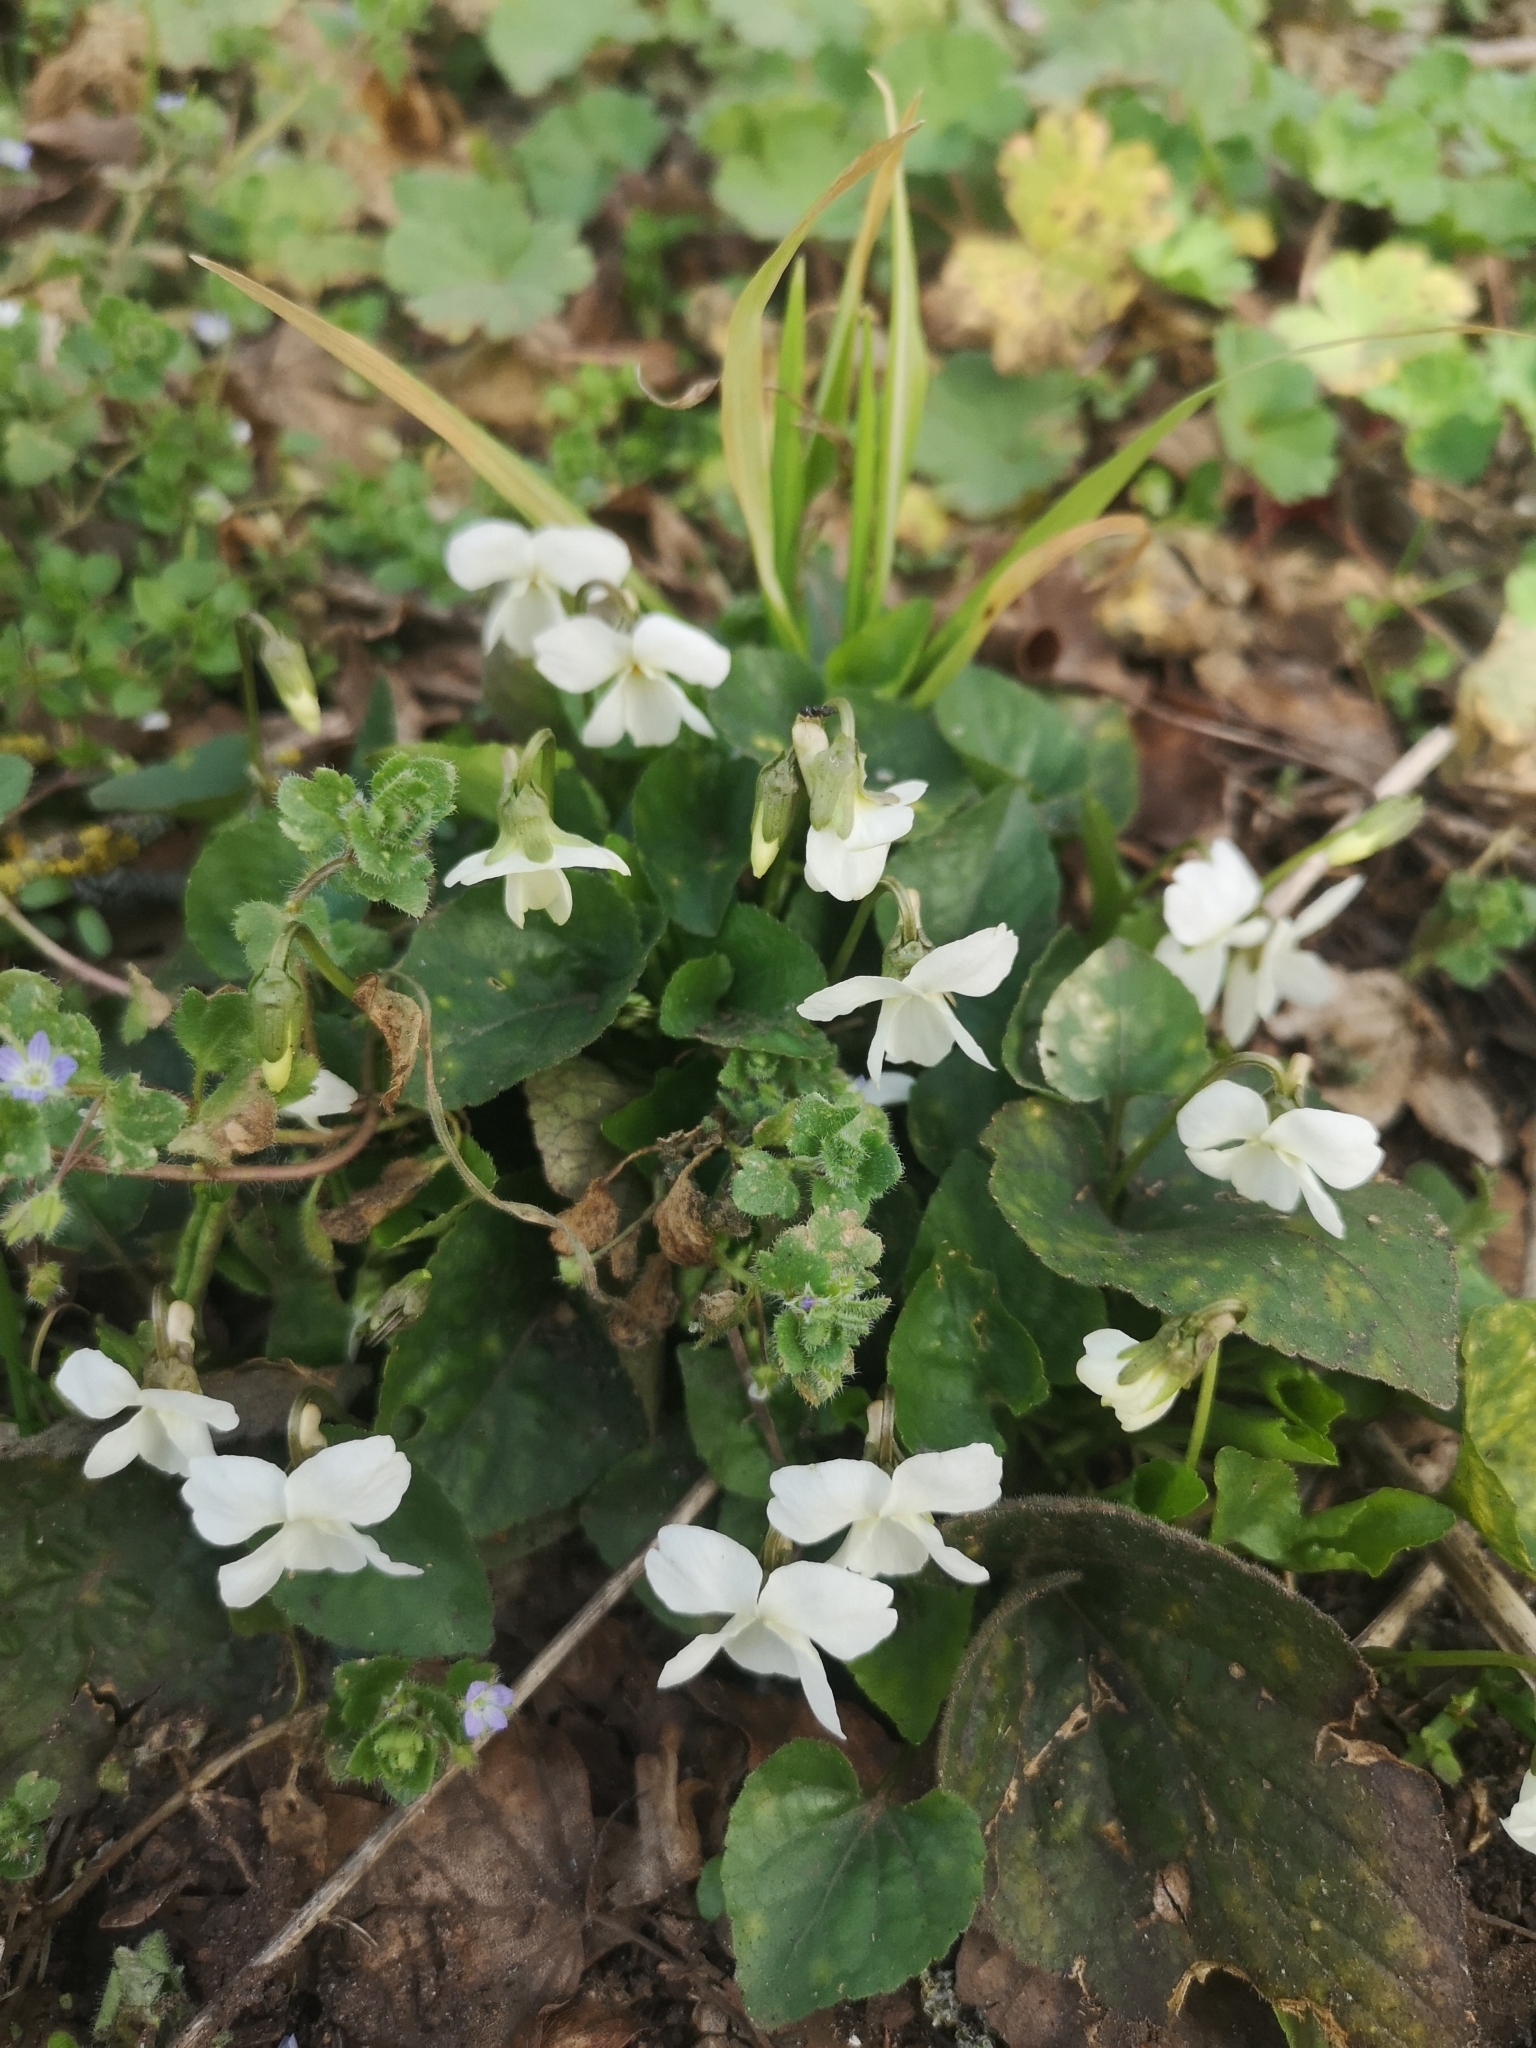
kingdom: Plantae
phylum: Tracheophyta
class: Magnoliopsida
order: Malpighiales
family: Violaceae
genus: Viola
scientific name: Viola alba
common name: White violet
